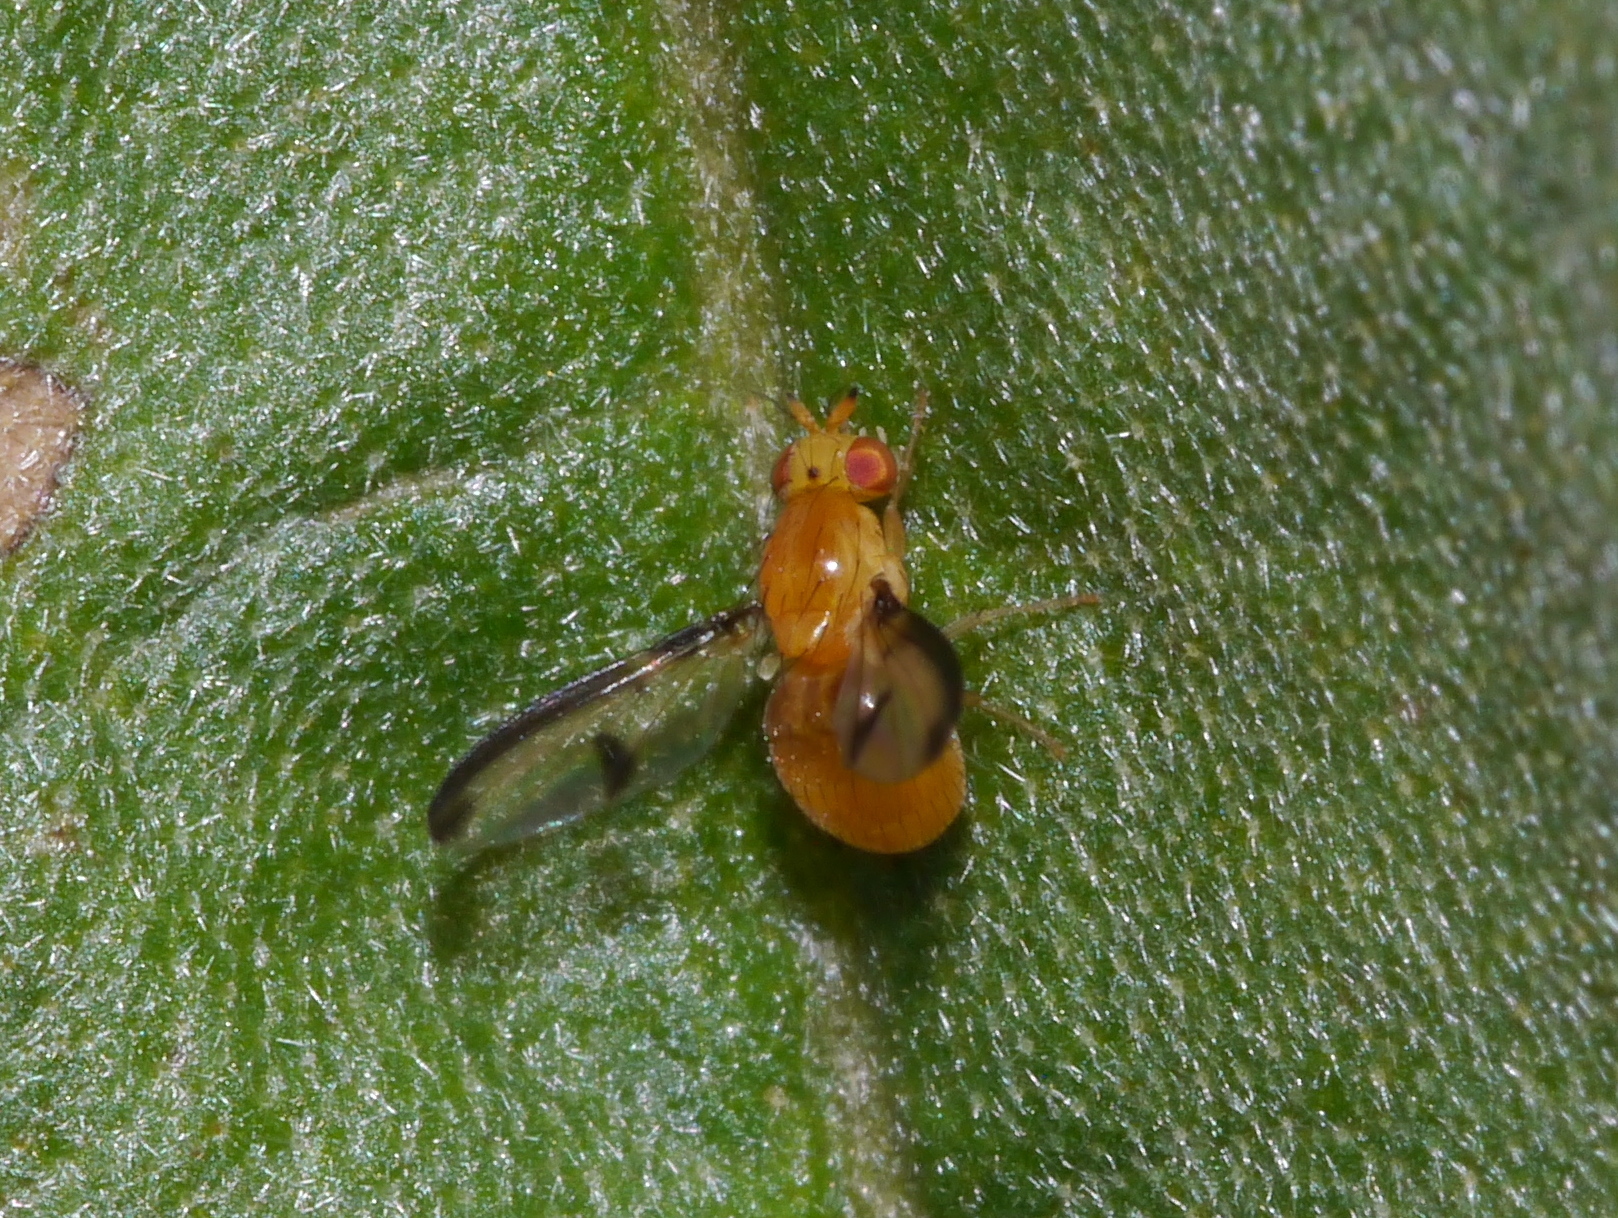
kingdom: Animalia
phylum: Arthropoda
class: Insecta
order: Diptera
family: Lauxaniidae
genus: Camptoprosopella
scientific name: Camptoprosopella maculipennis
